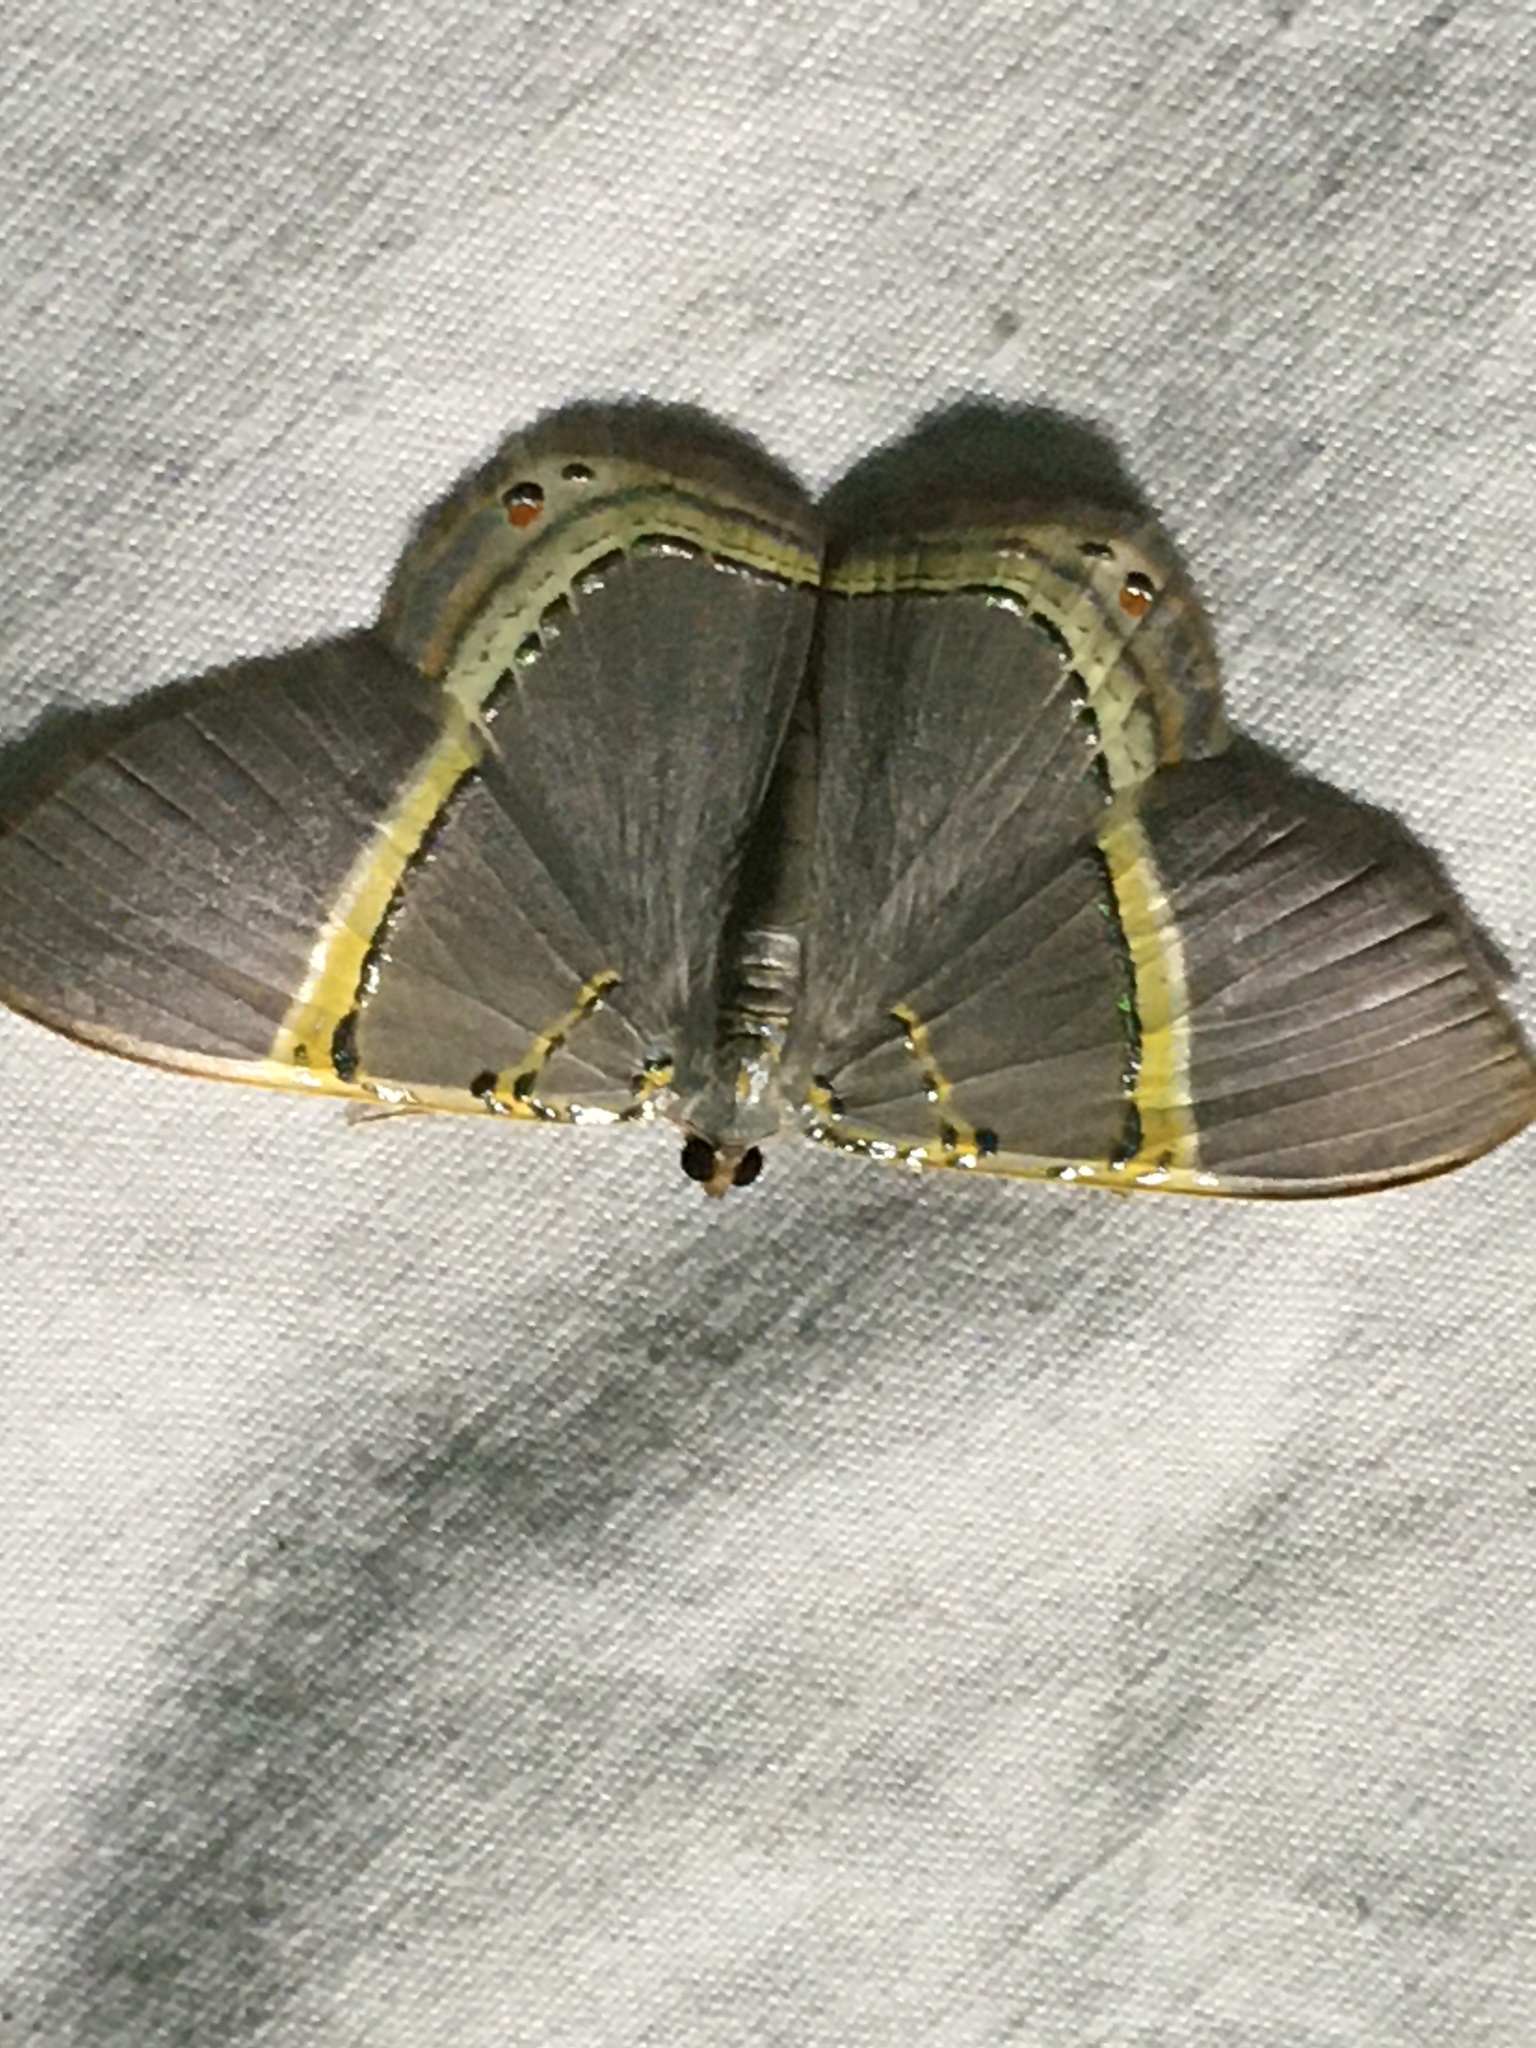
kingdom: Animalia
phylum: Arthropoda
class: Insecta
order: Lepidoptera
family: Geometridae
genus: Phrygionis
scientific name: Phrygionis privignaria
